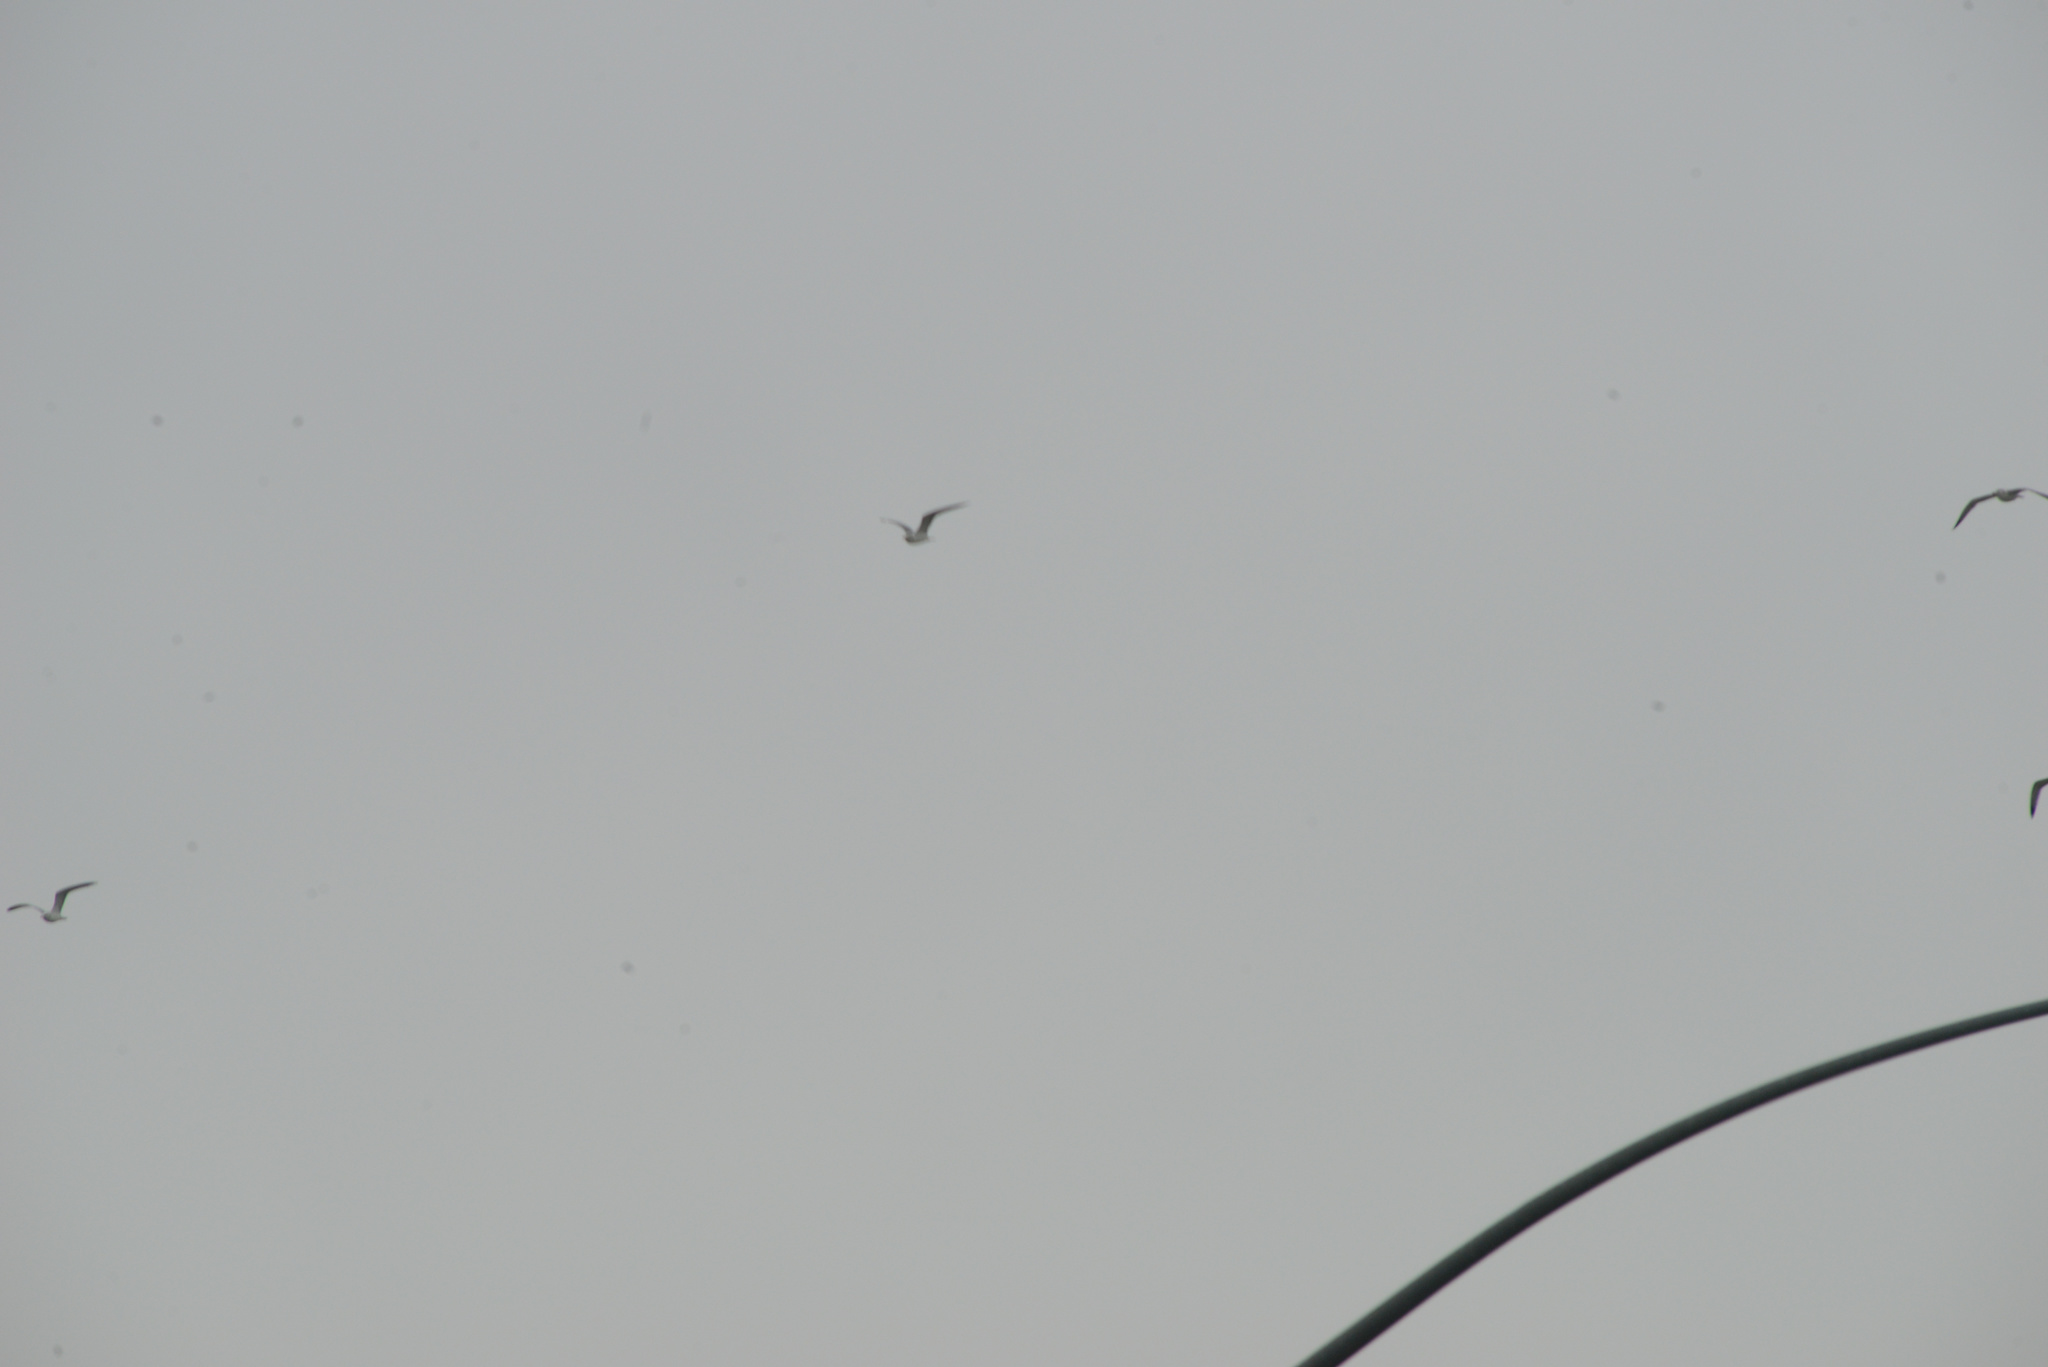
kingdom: Animalia
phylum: Chordata
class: Aves
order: Charadriiformes
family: Laridae
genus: Larus
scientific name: Larus
